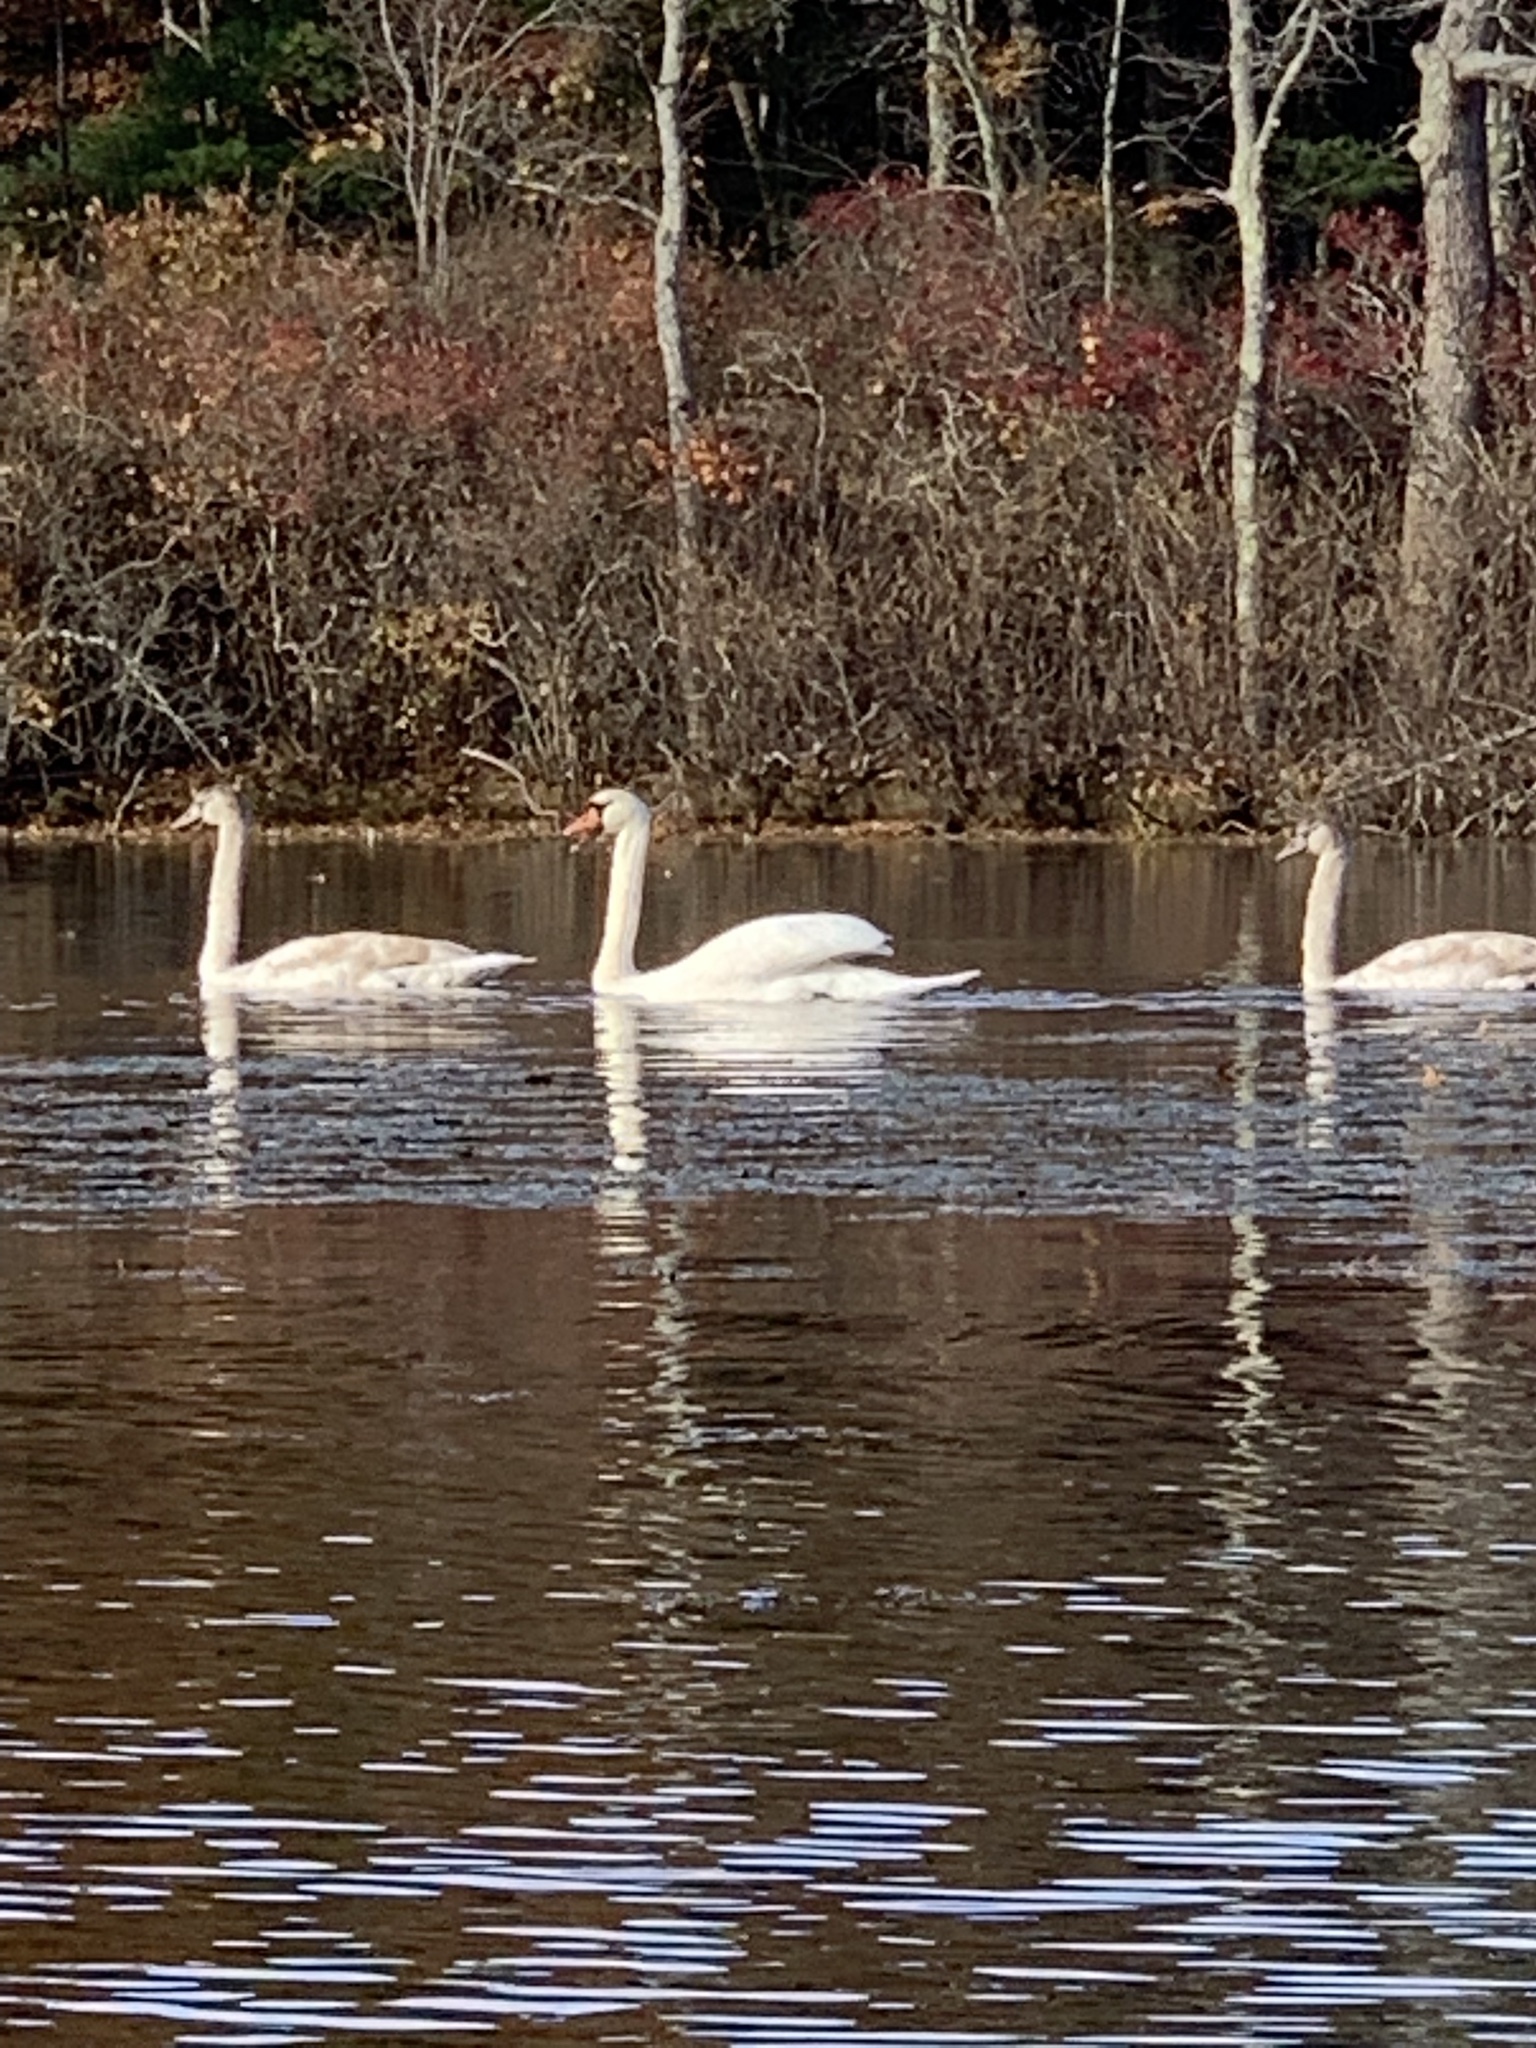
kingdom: Animalia
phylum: Chordata
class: Aves
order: Anseriformes
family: Anatidae
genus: Cygnus
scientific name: Cygnus olor
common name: Mute swan
